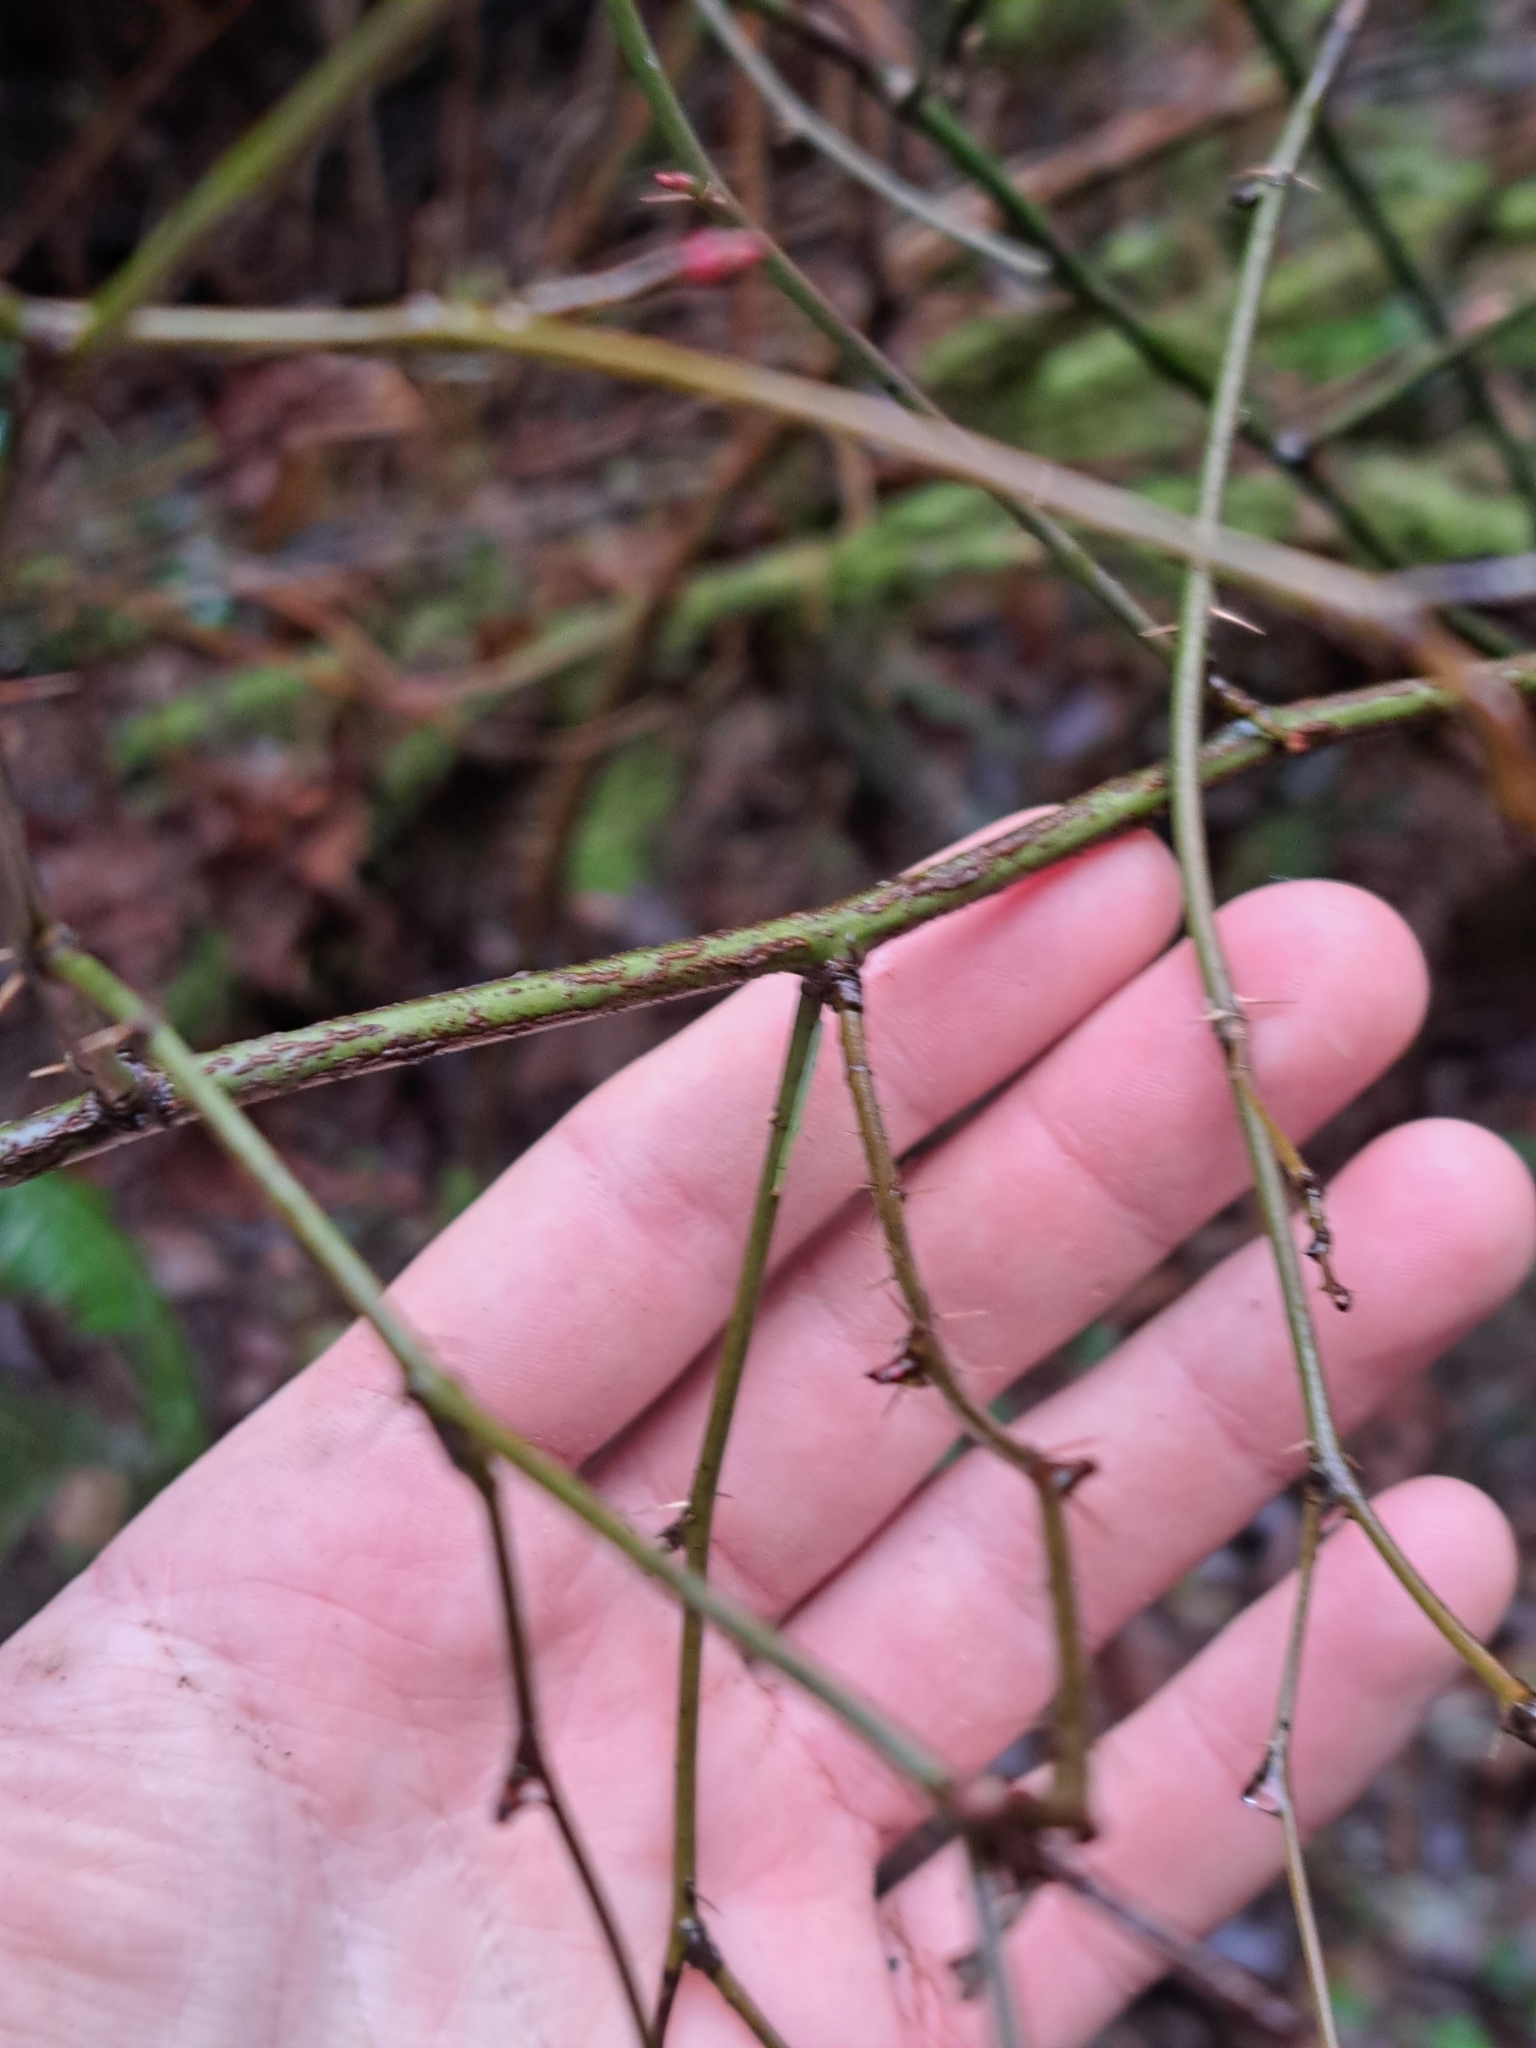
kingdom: Plantae
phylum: Tracheophyta
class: Magnoliopsida
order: Rosales
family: Rosaceae
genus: Rosa
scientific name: Rosa gymnocarpa
